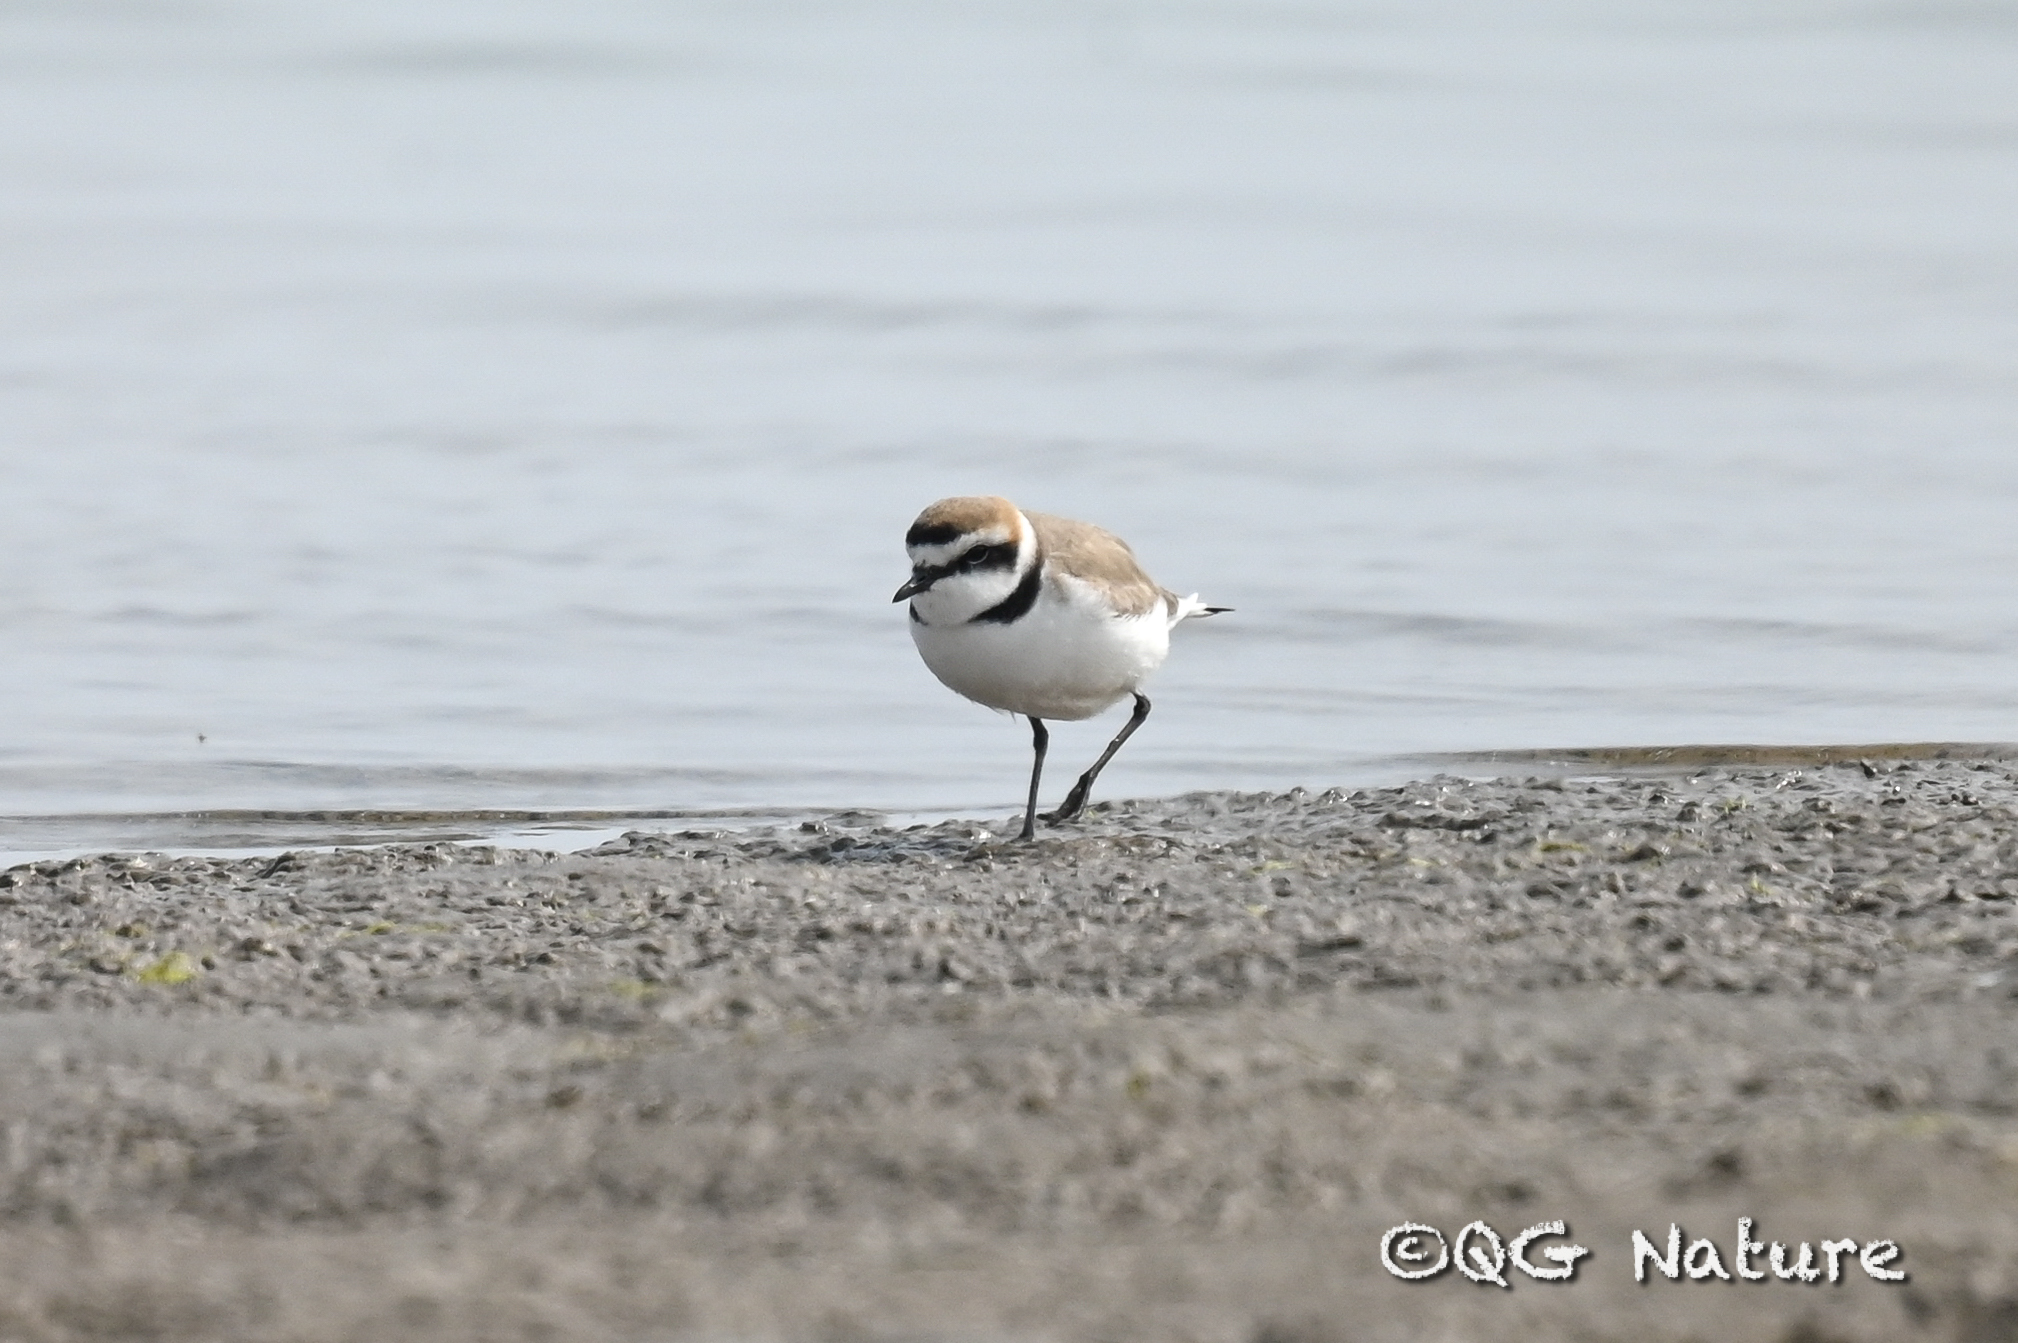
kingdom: Animalia
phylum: Chordata
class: Aves
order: Charadriiformes
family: Charadriidae
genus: Charadrius
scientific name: Charadrius alexandrinus
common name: Kentish plover
